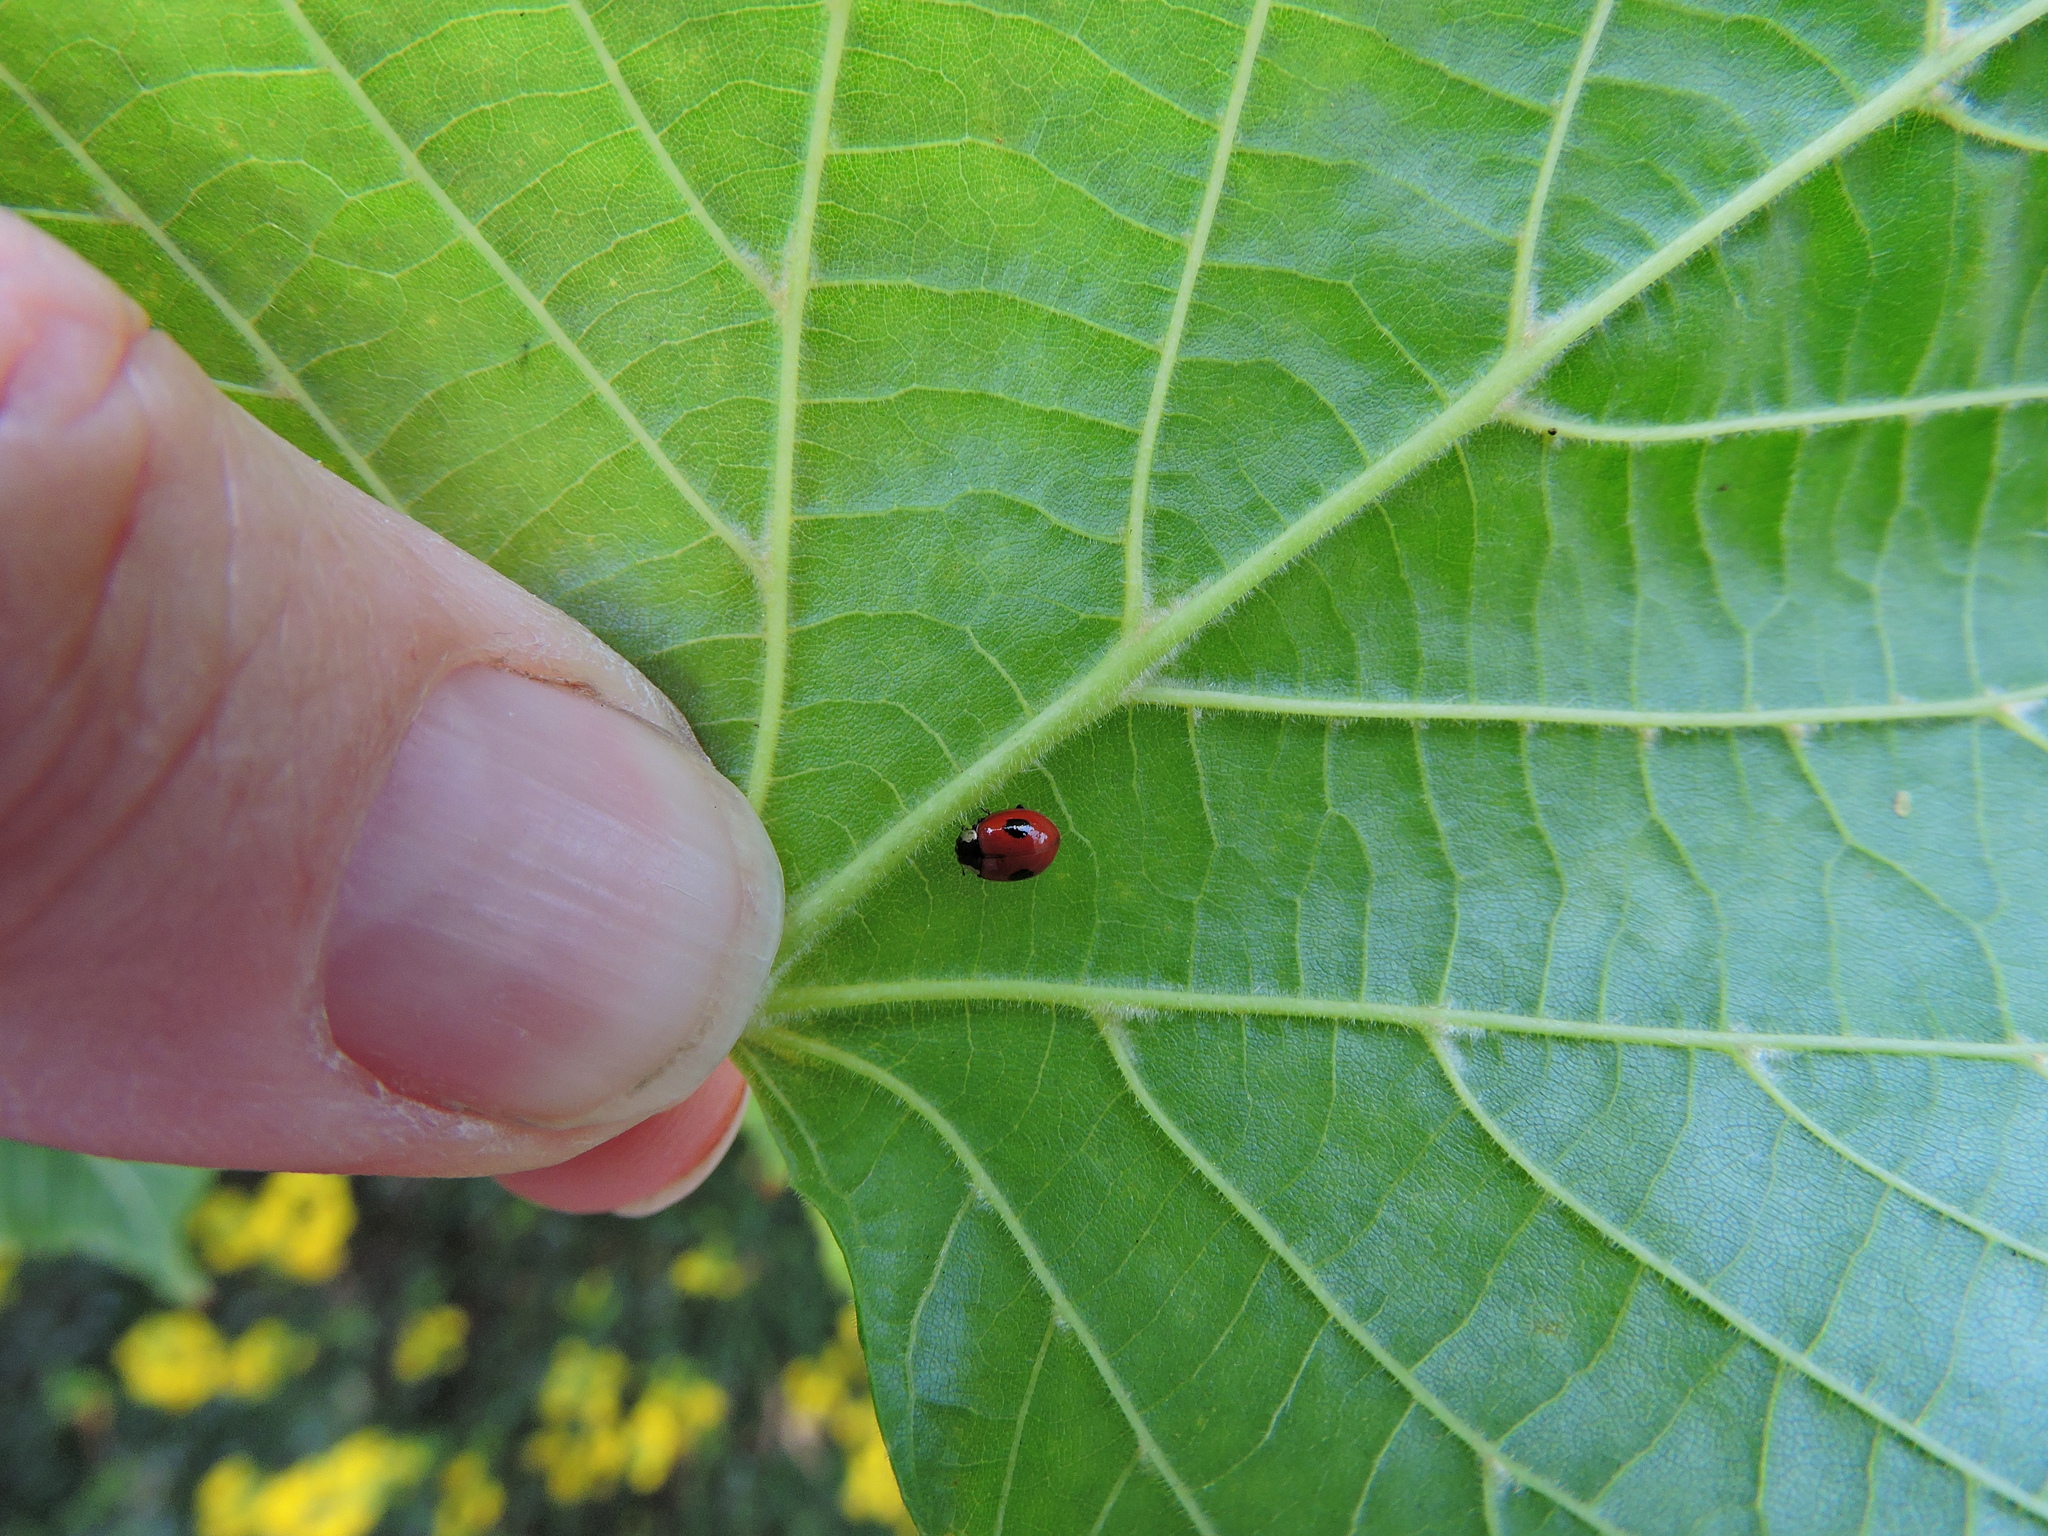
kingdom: Animalia
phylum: Arthropoda
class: Insecta
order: Coleoptera
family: Coccinellidae
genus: Adalia
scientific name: Adalia bipunctata
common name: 2-spot ladybird
